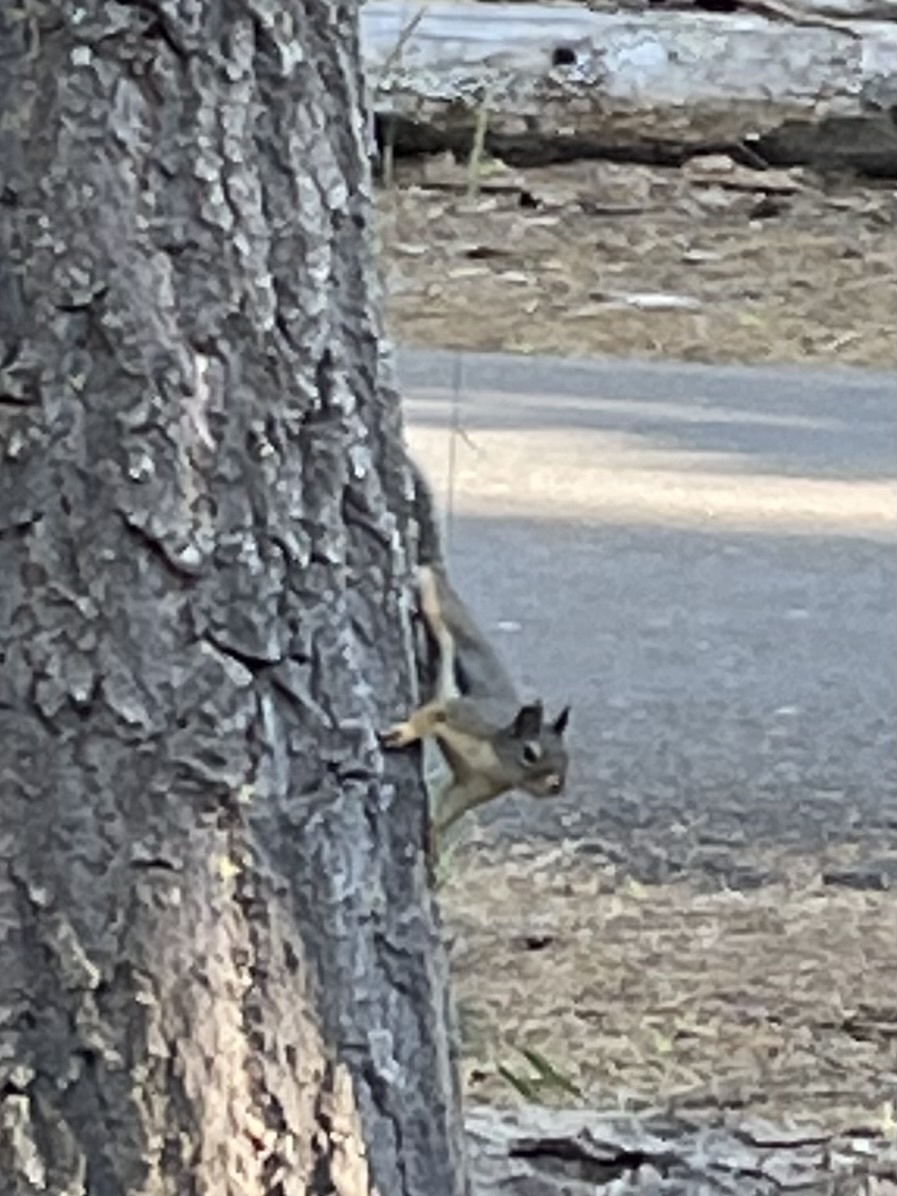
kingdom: Animalia
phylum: Chordata
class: Mammalia
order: Rodentia
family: Sciuridae
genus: Tamiasciurus
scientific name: Tamiasciurus douglasii
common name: Douglas's squirrel
